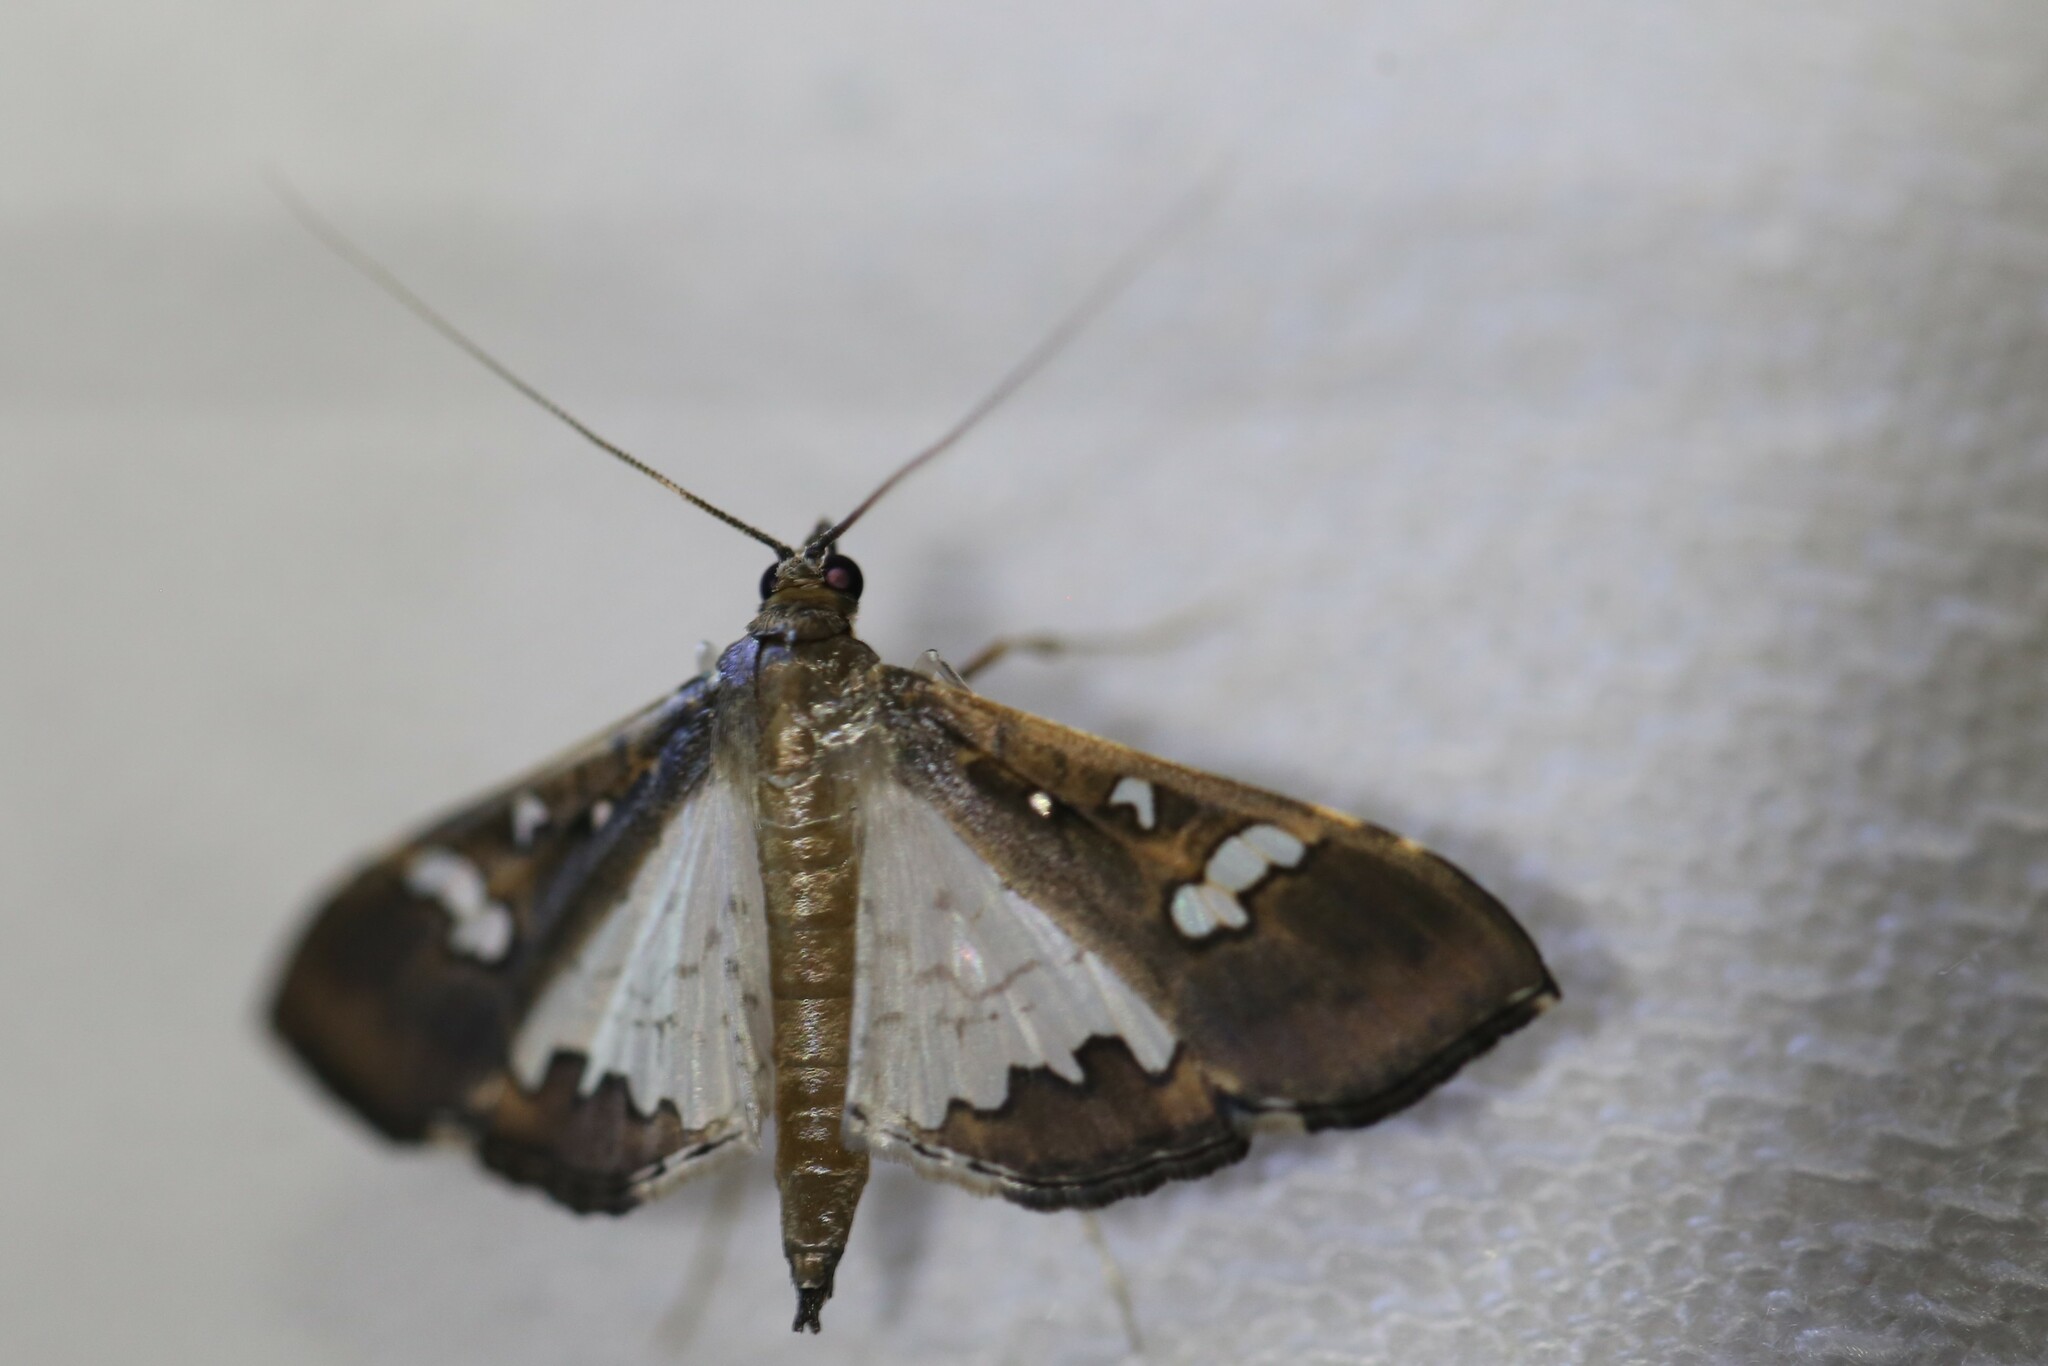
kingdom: Animalia
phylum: Arthropoda
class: Insecta
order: Lepidoptera
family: Crambidae
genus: Maruca
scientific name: Maruca vitrata
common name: Maruca pod borer
